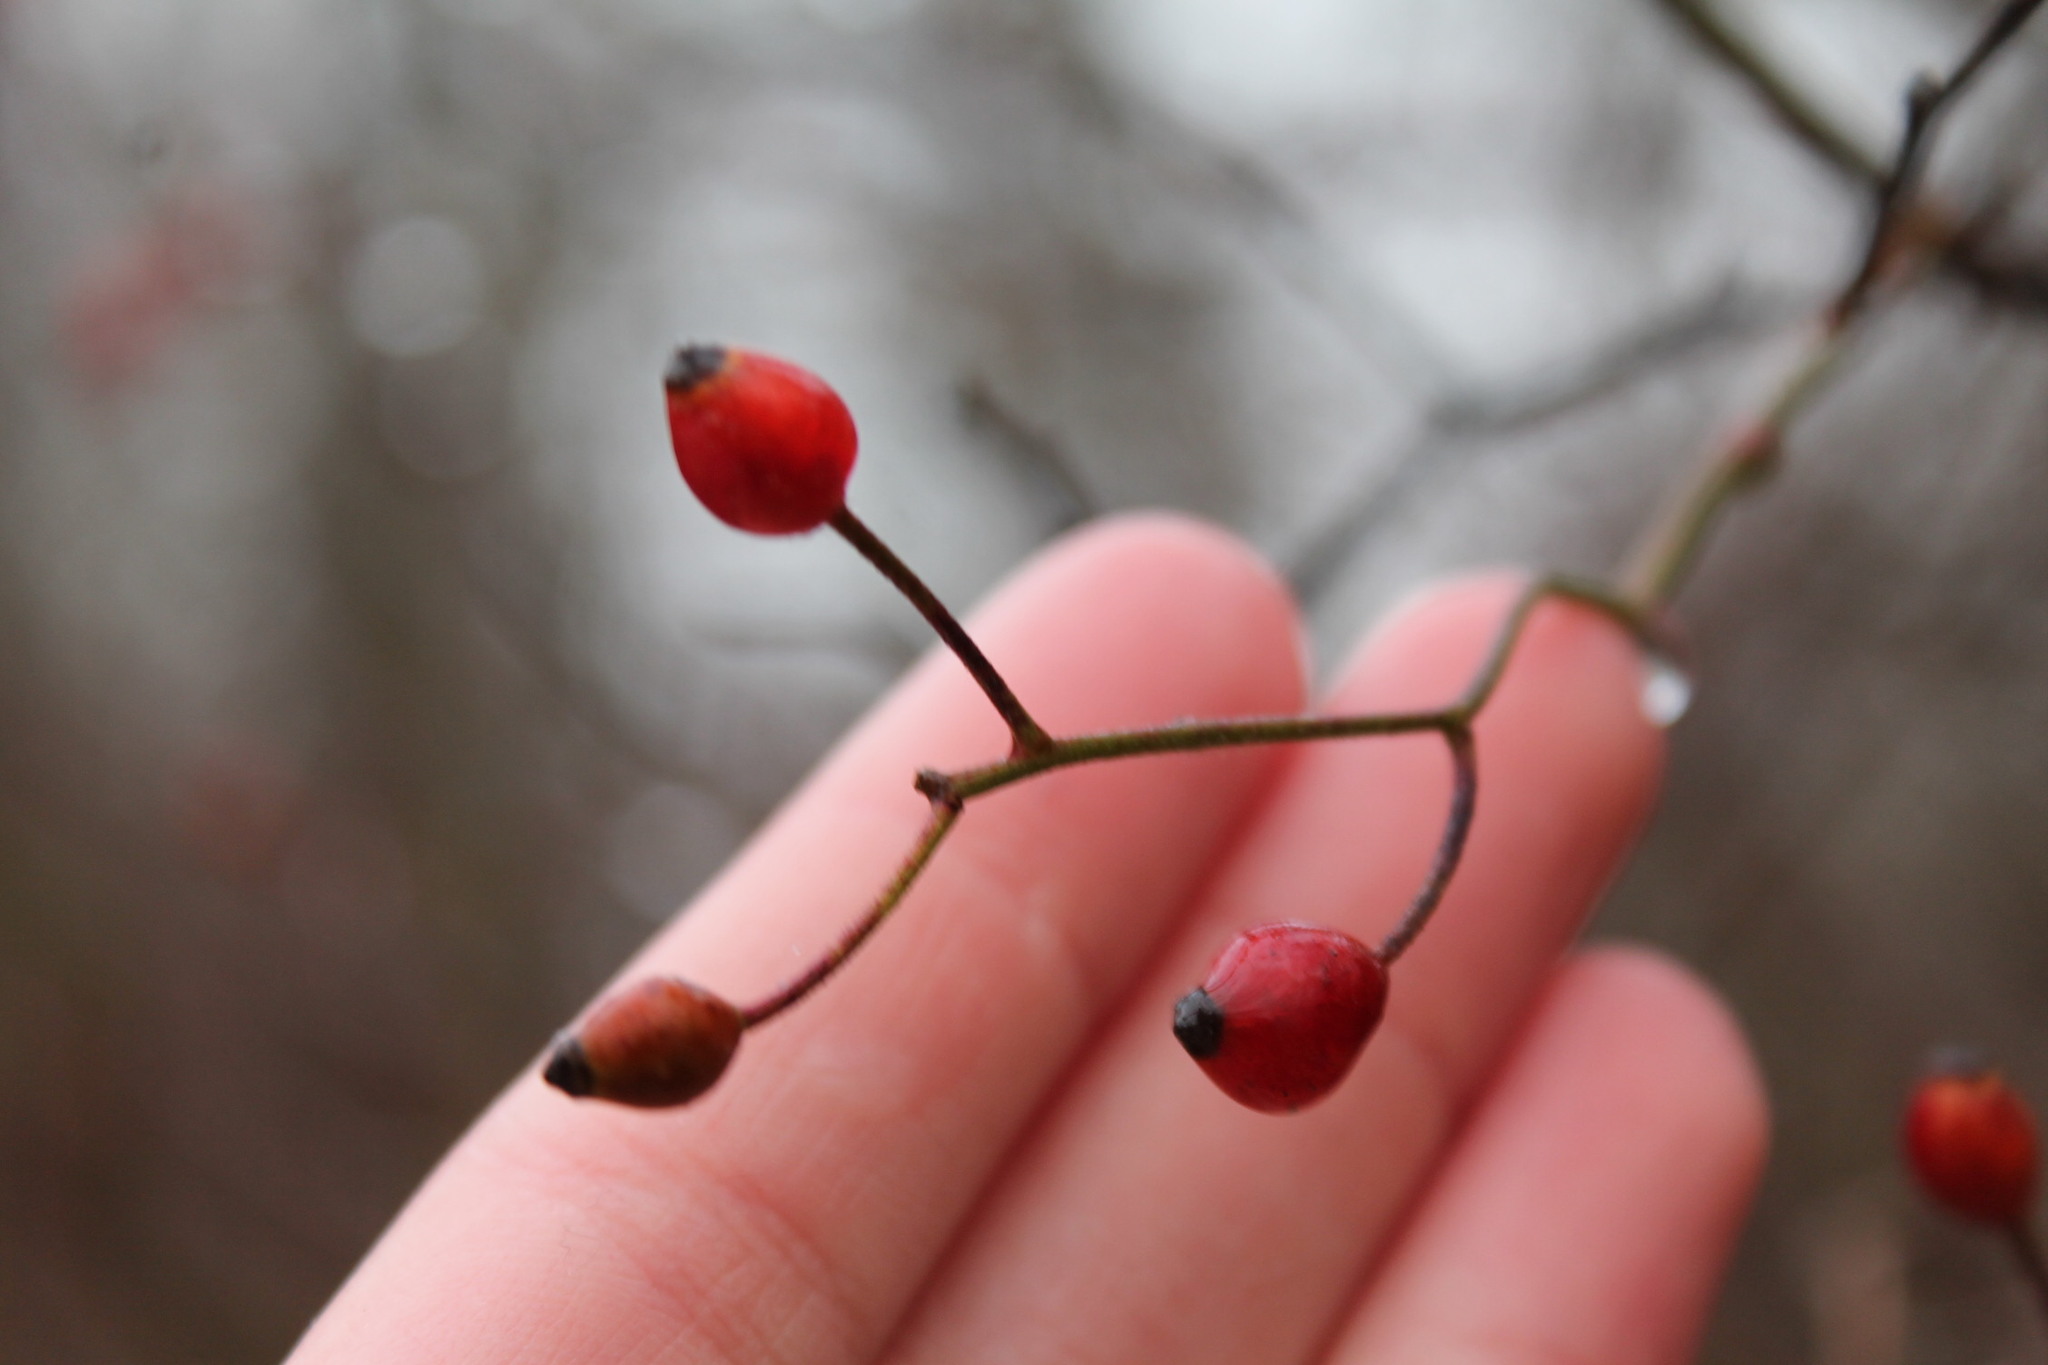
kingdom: Plantae
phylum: Tracheophyta
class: Magnoliopsida
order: Rosales
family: Rosaceae
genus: Rosa
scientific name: Rosa multiflora
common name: Multiflora rose
